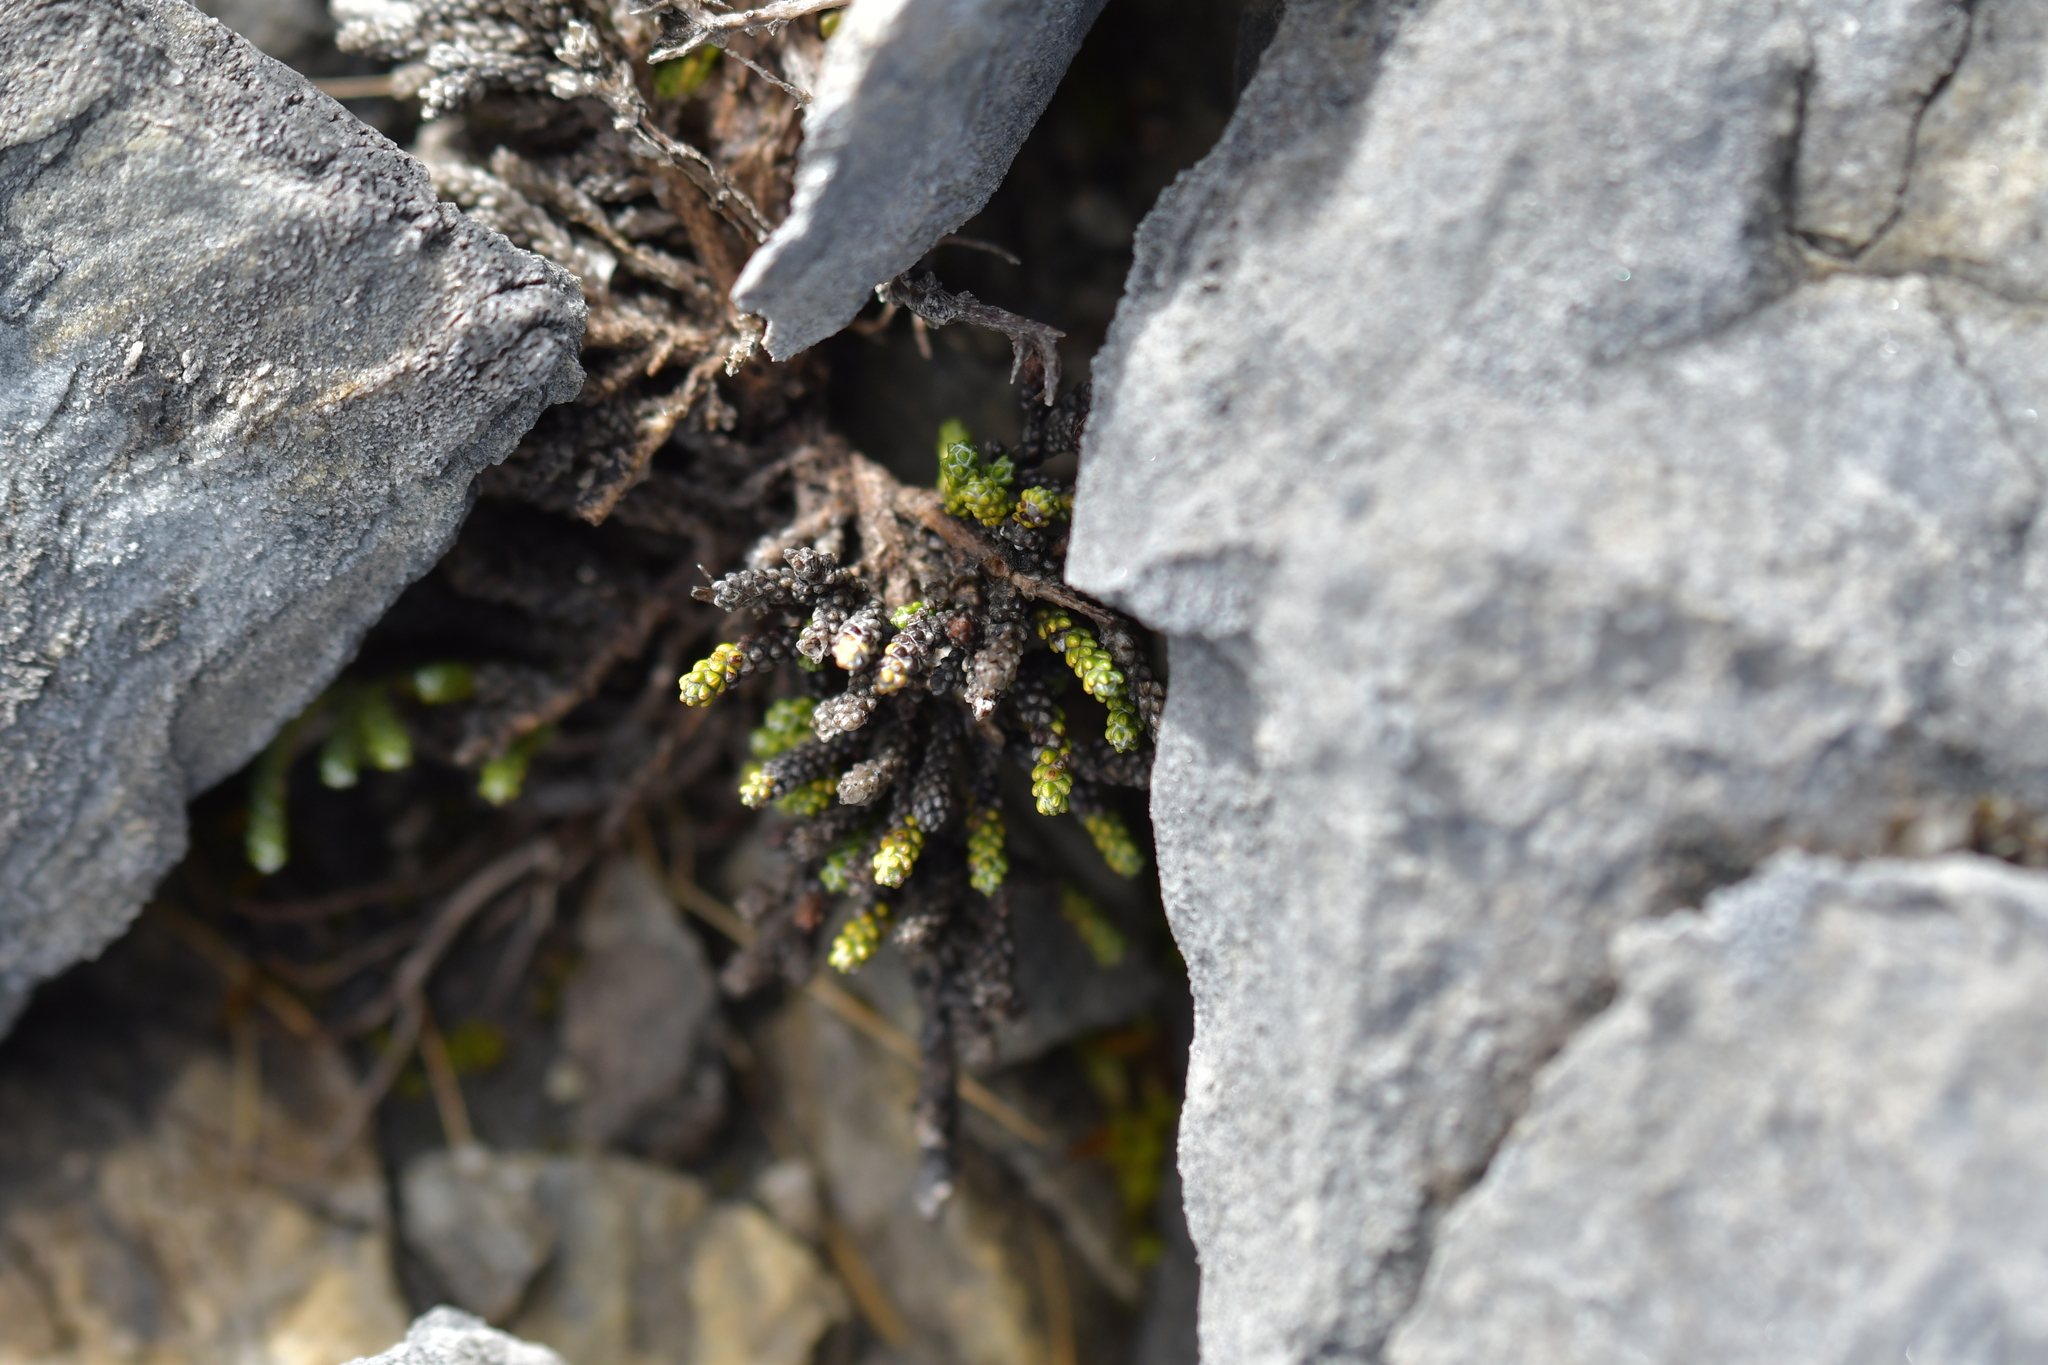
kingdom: Plantae
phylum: Tracheophyta
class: Magnoliopsida
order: Asterales
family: Asteraceae
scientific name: Asteraceae
